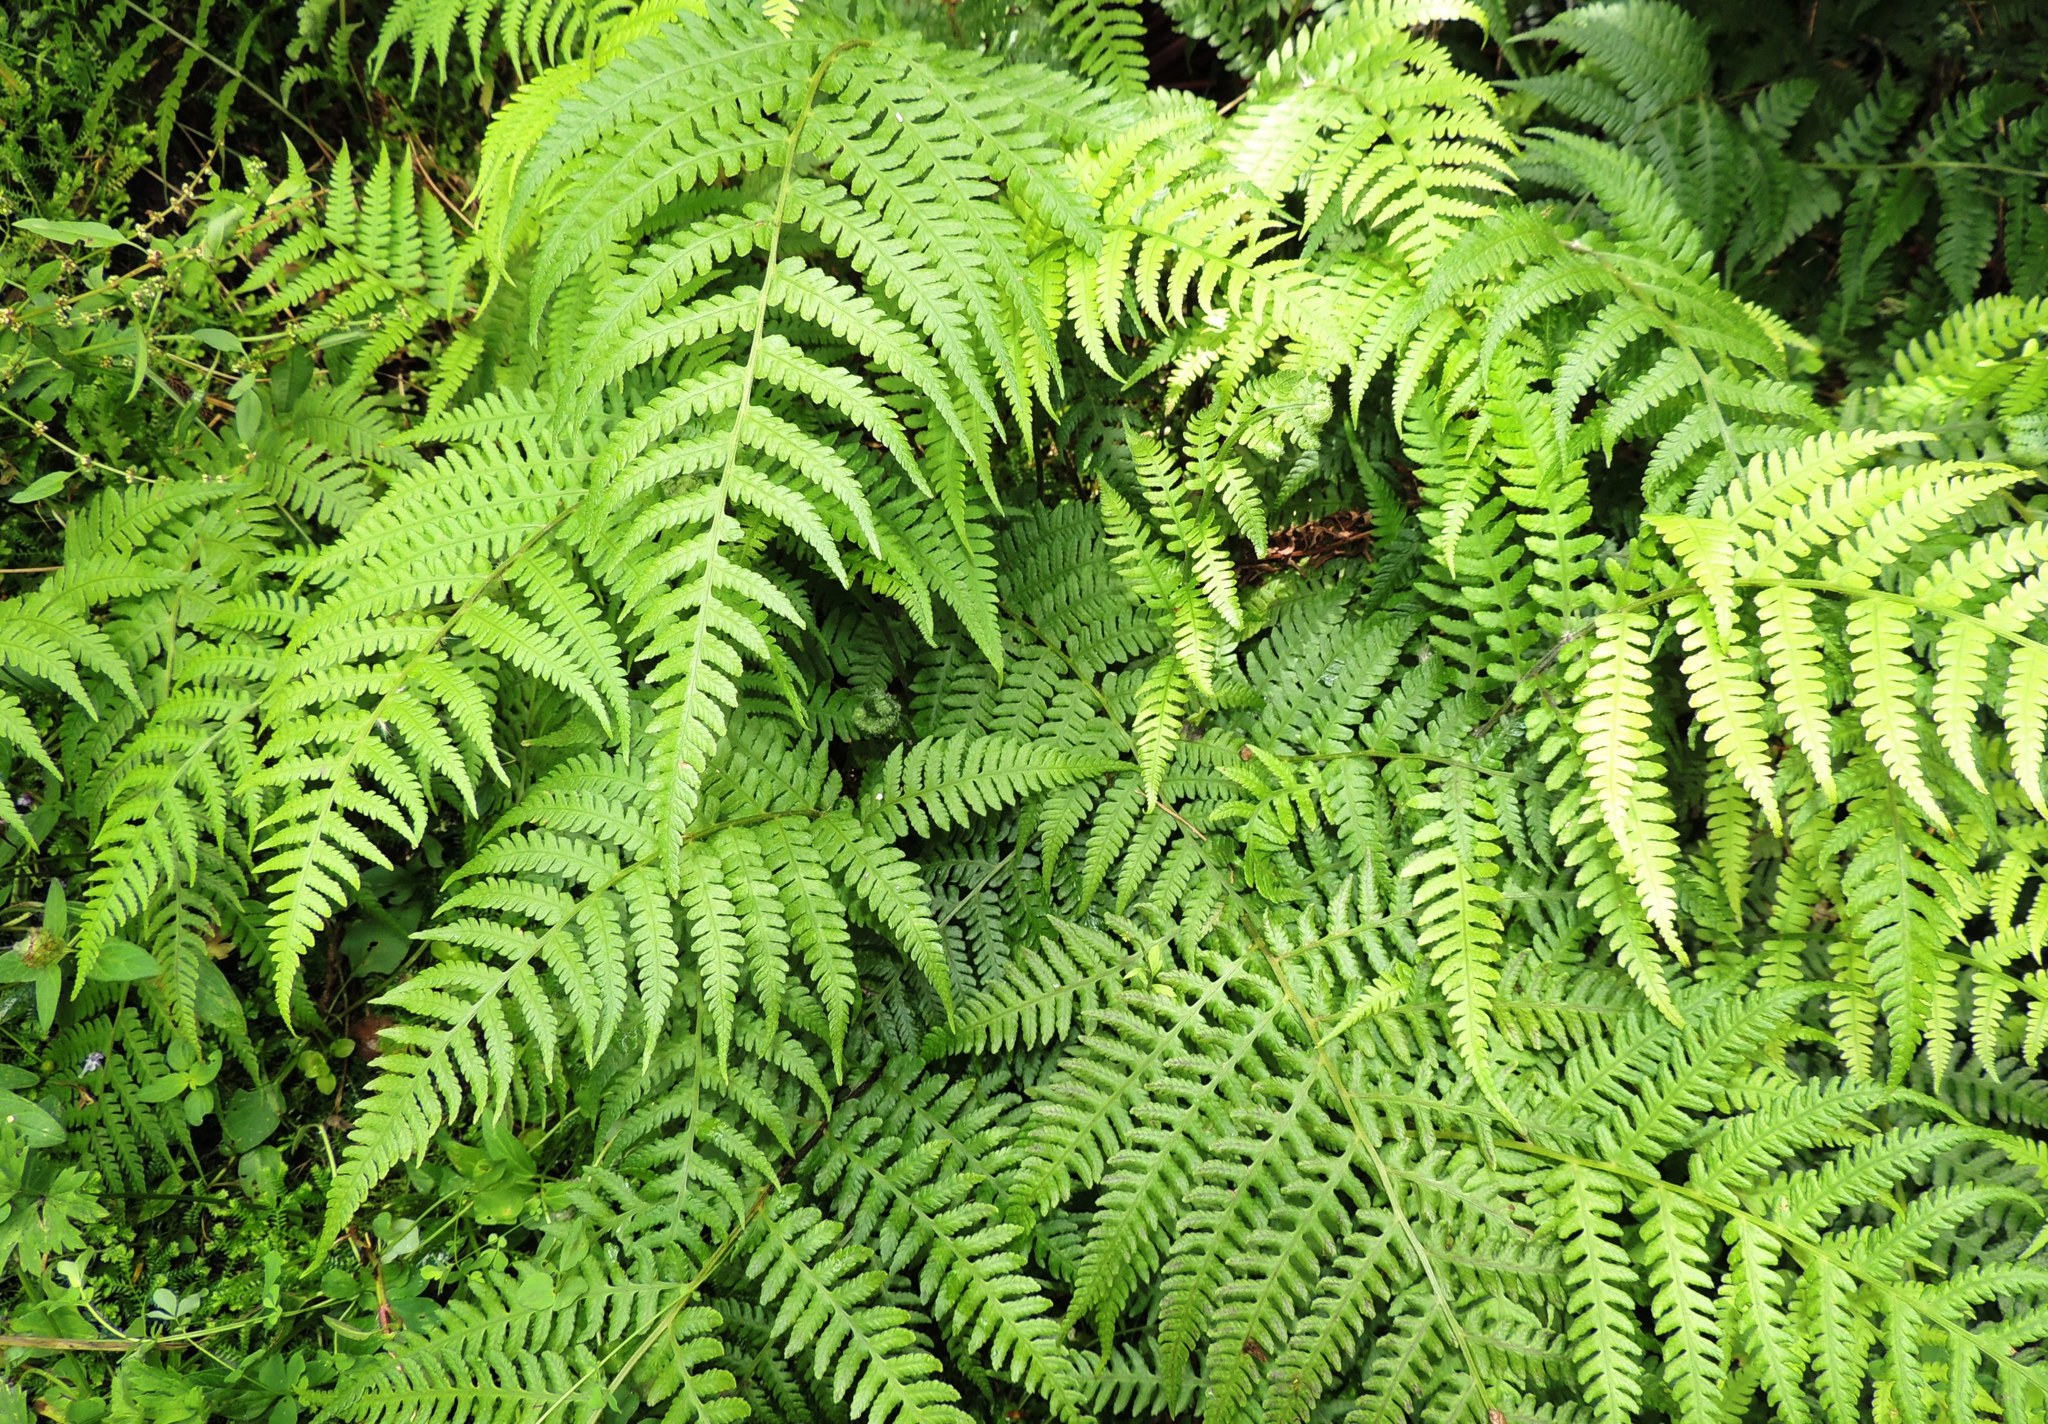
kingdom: Plantae
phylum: Tracheophyta
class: Polypodiopsida
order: Polypodiales
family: Athyriaceae
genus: Diplazium
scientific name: Diplazium congruum
